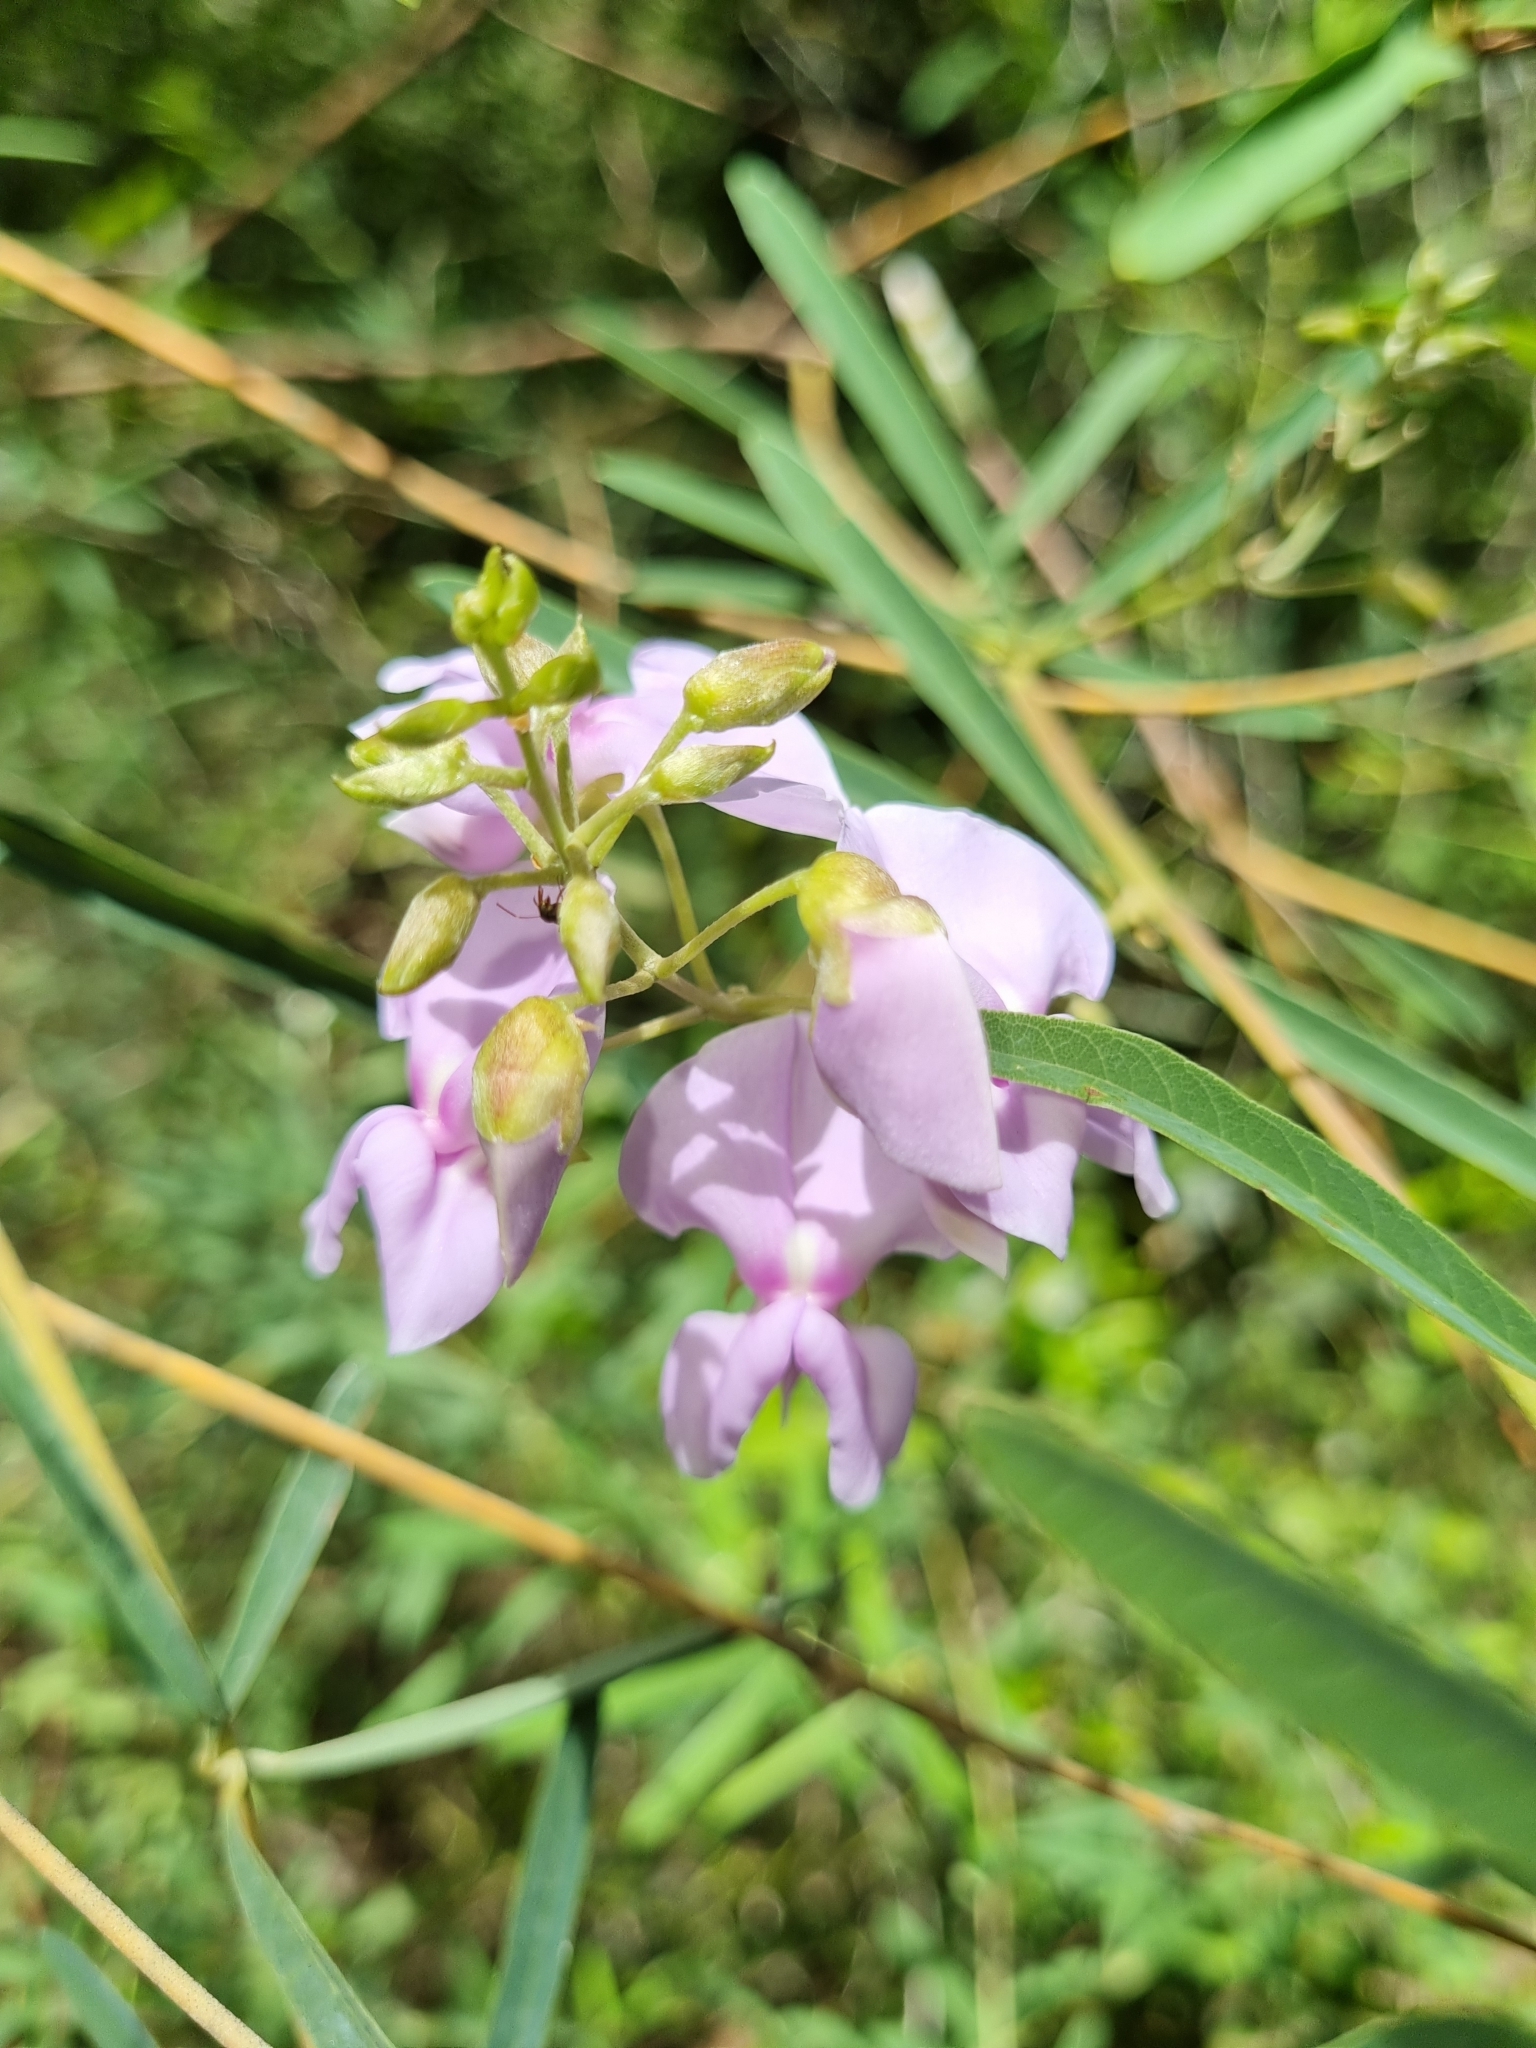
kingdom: Plantae
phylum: Tracheophyta
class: Magnoliopsida
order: Fabales
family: Fabaceae
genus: Collaea
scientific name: Collaea stenophylla
